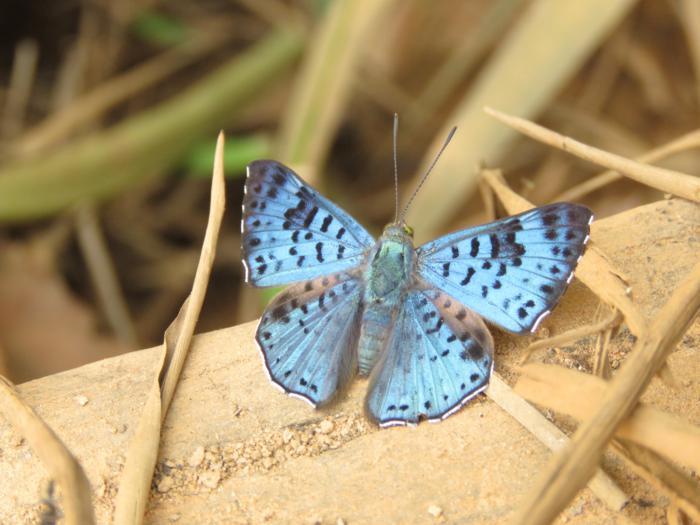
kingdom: Animalia
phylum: Arthropoda
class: Insecta
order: Lepidoptera
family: Riodinidae
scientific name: Riodinidae
